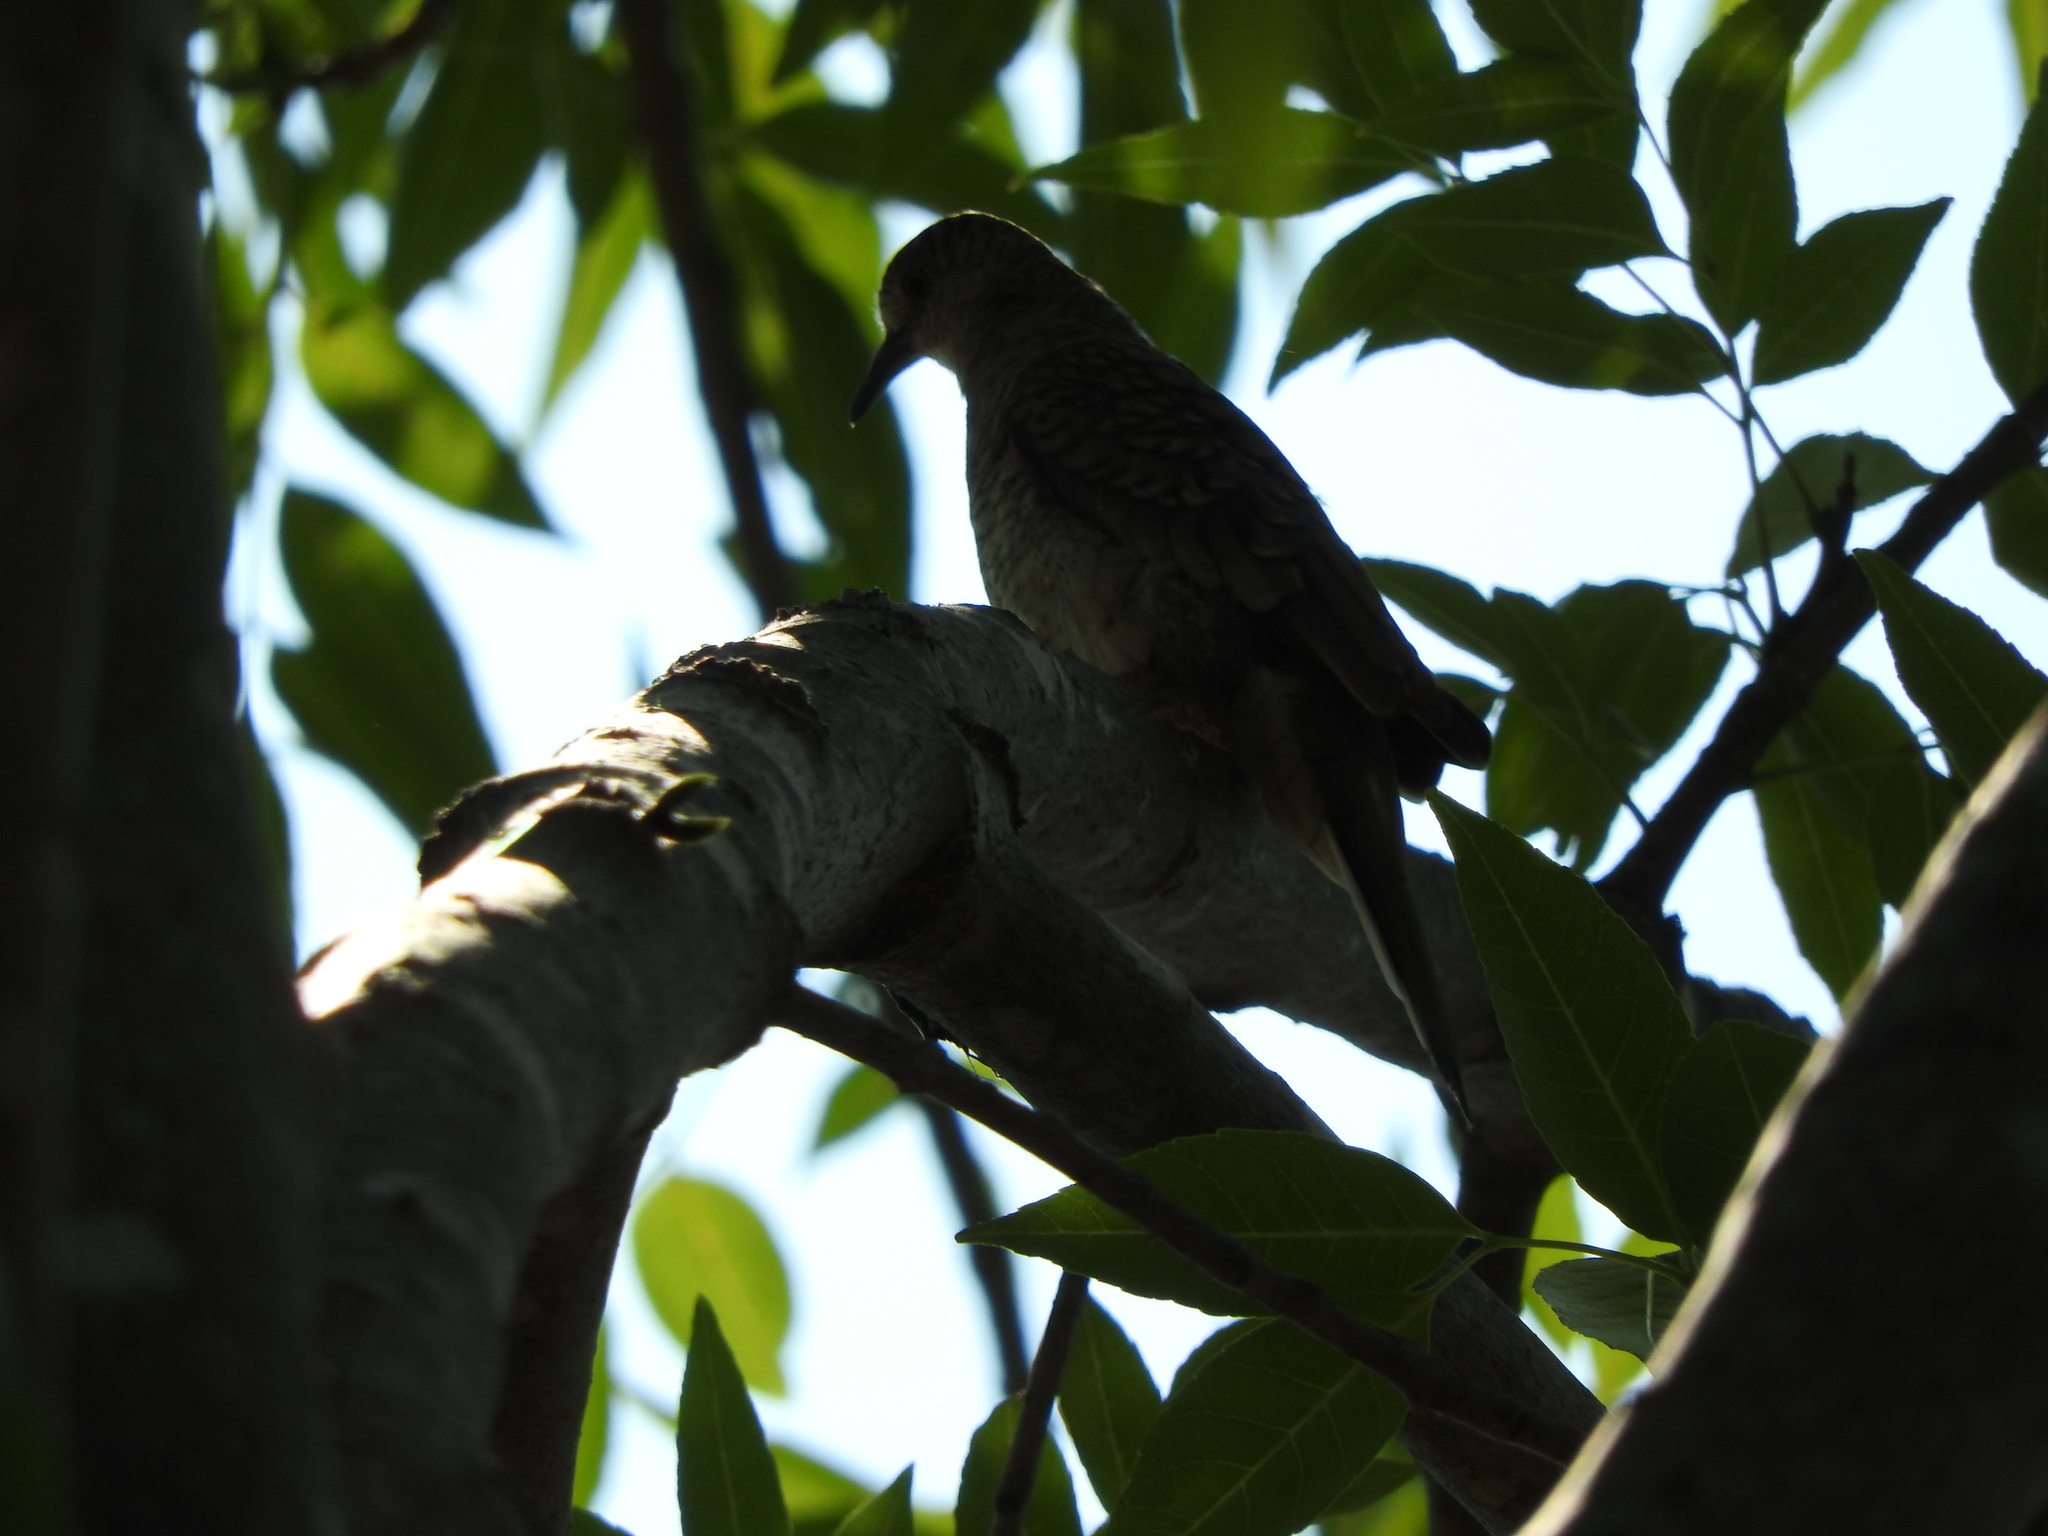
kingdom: Animalia
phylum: Chordata
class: Aves
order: Columbiformes
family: Columbidae
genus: Columbina
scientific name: Columbina inca
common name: Inca dove
